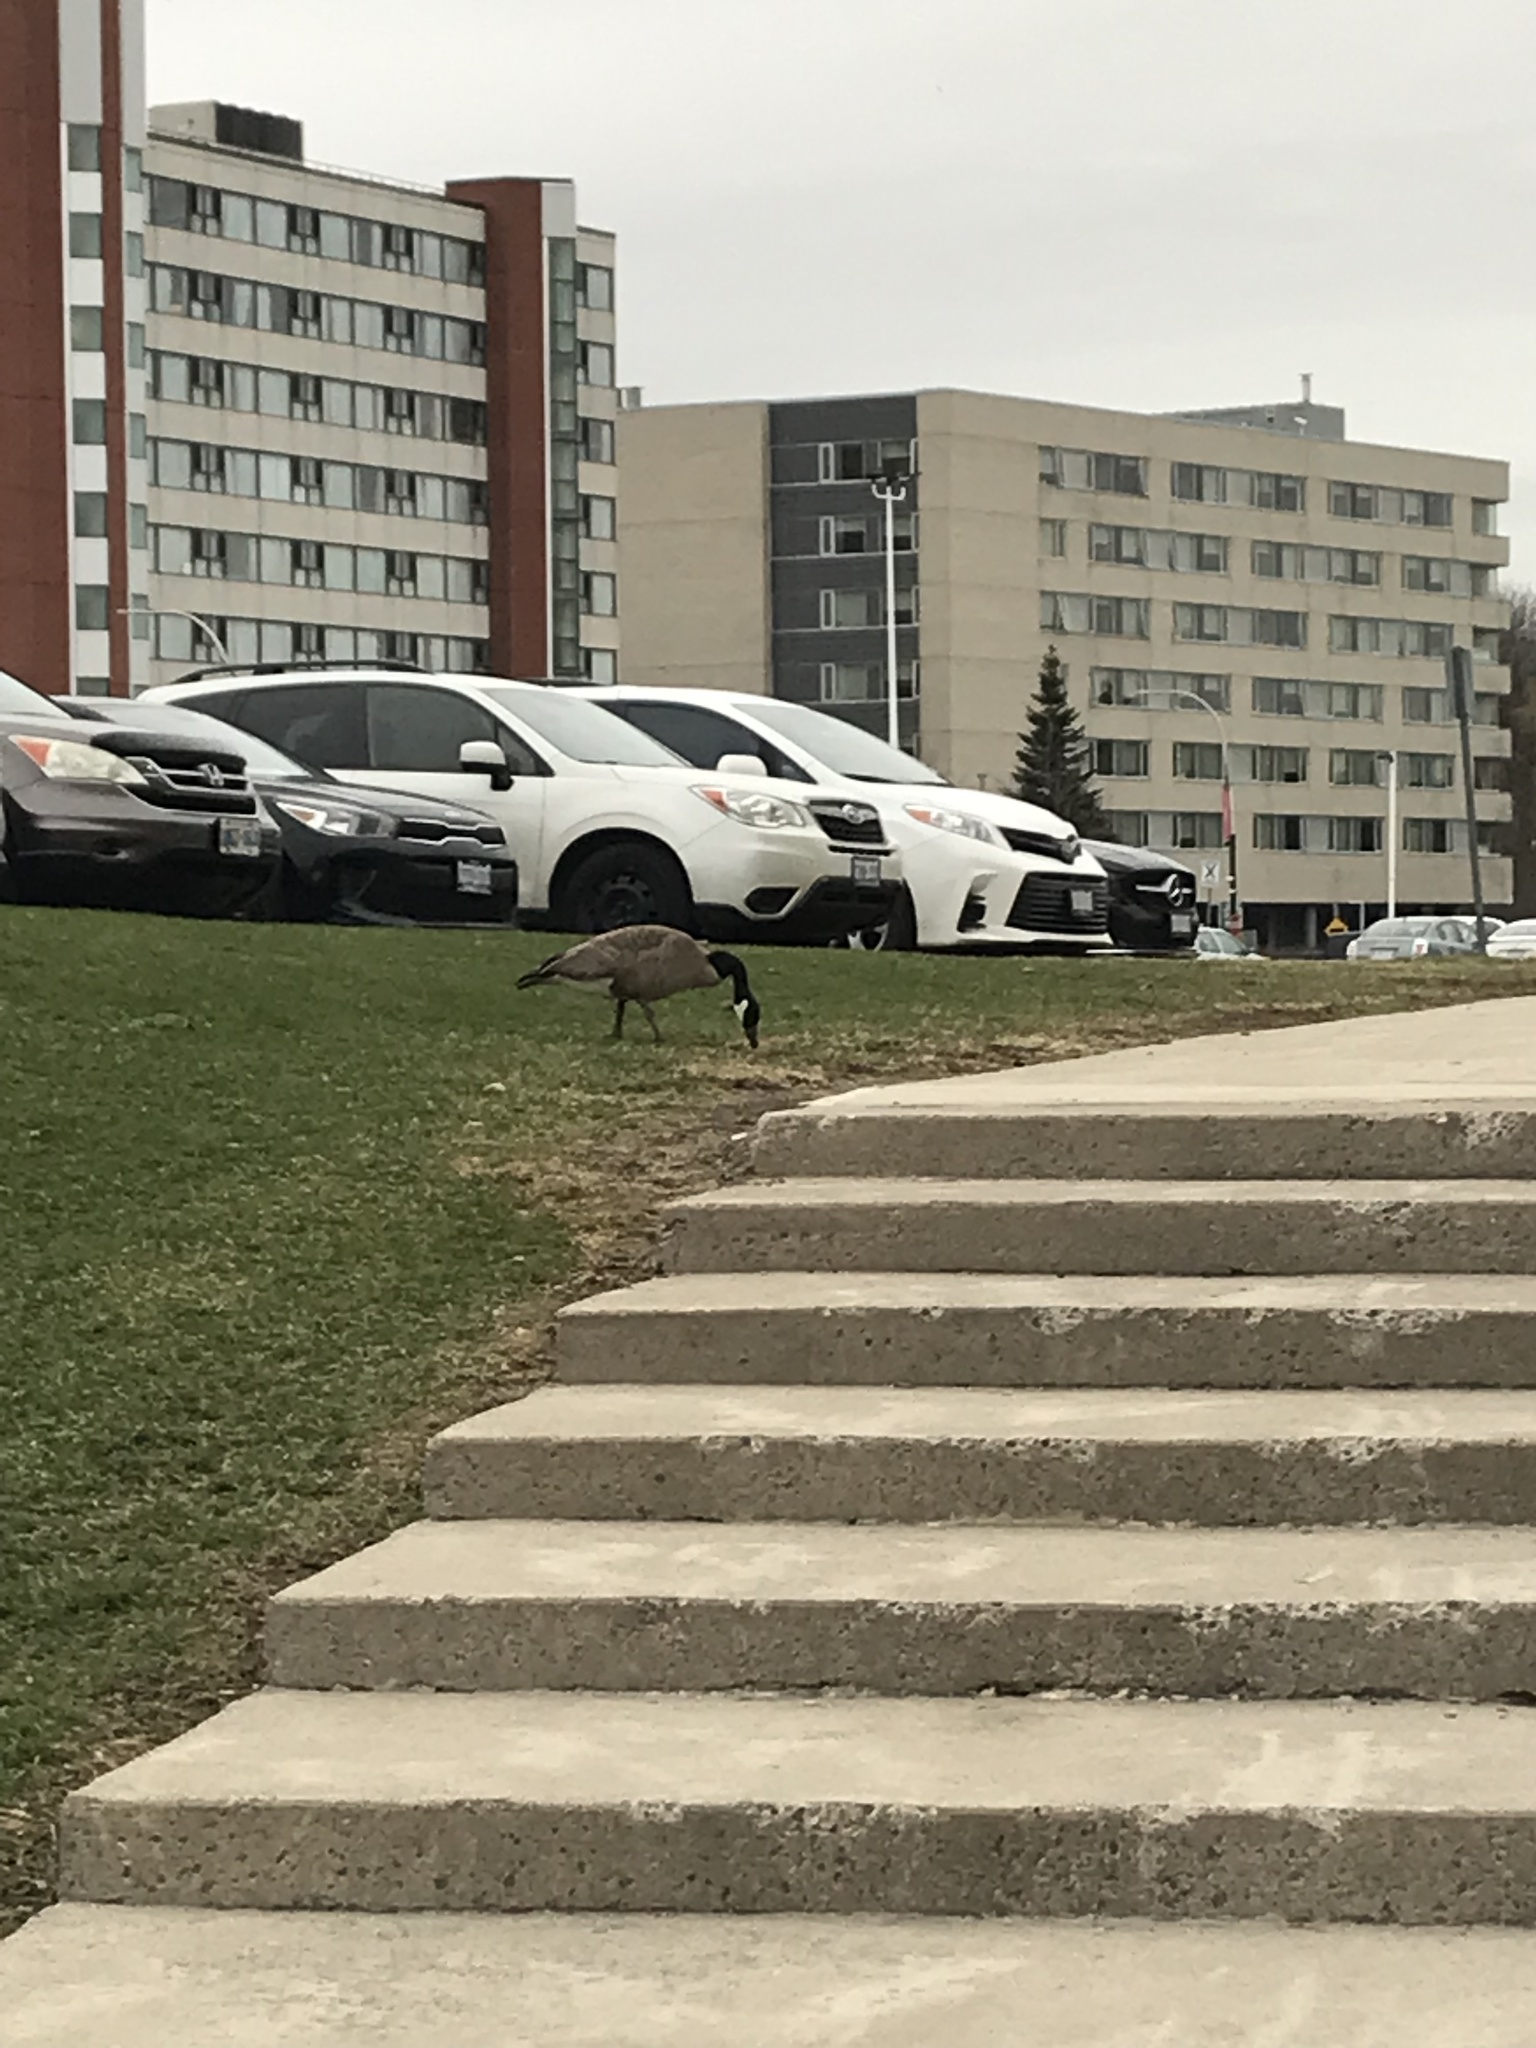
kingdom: Animalia
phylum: Chordata
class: Aves
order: Anseriformes
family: Anatidae
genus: Branta
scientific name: Branta canadensis
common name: Canada goose
